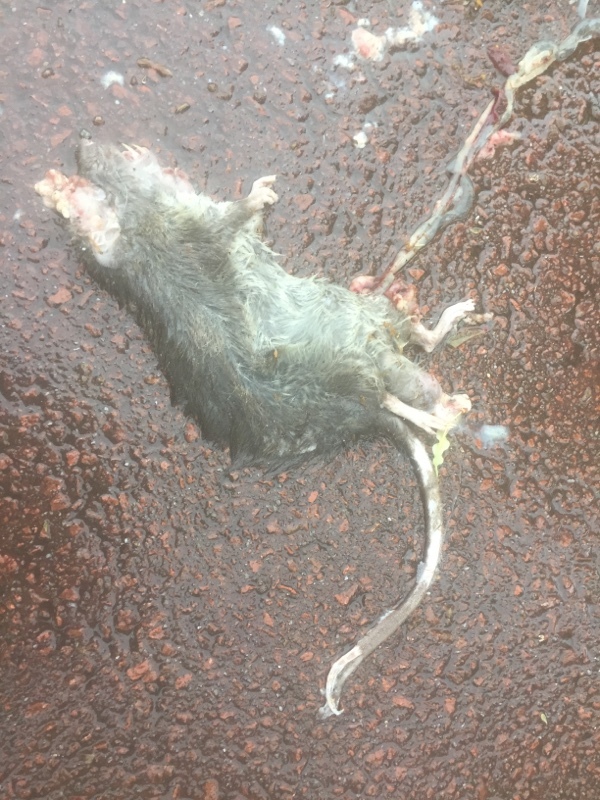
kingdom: Animalia
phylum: Chordata
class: Mammalia
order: Rodentia
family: Muridae
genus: Rattus
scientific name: Rattus norvegicus
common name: Brown rat
